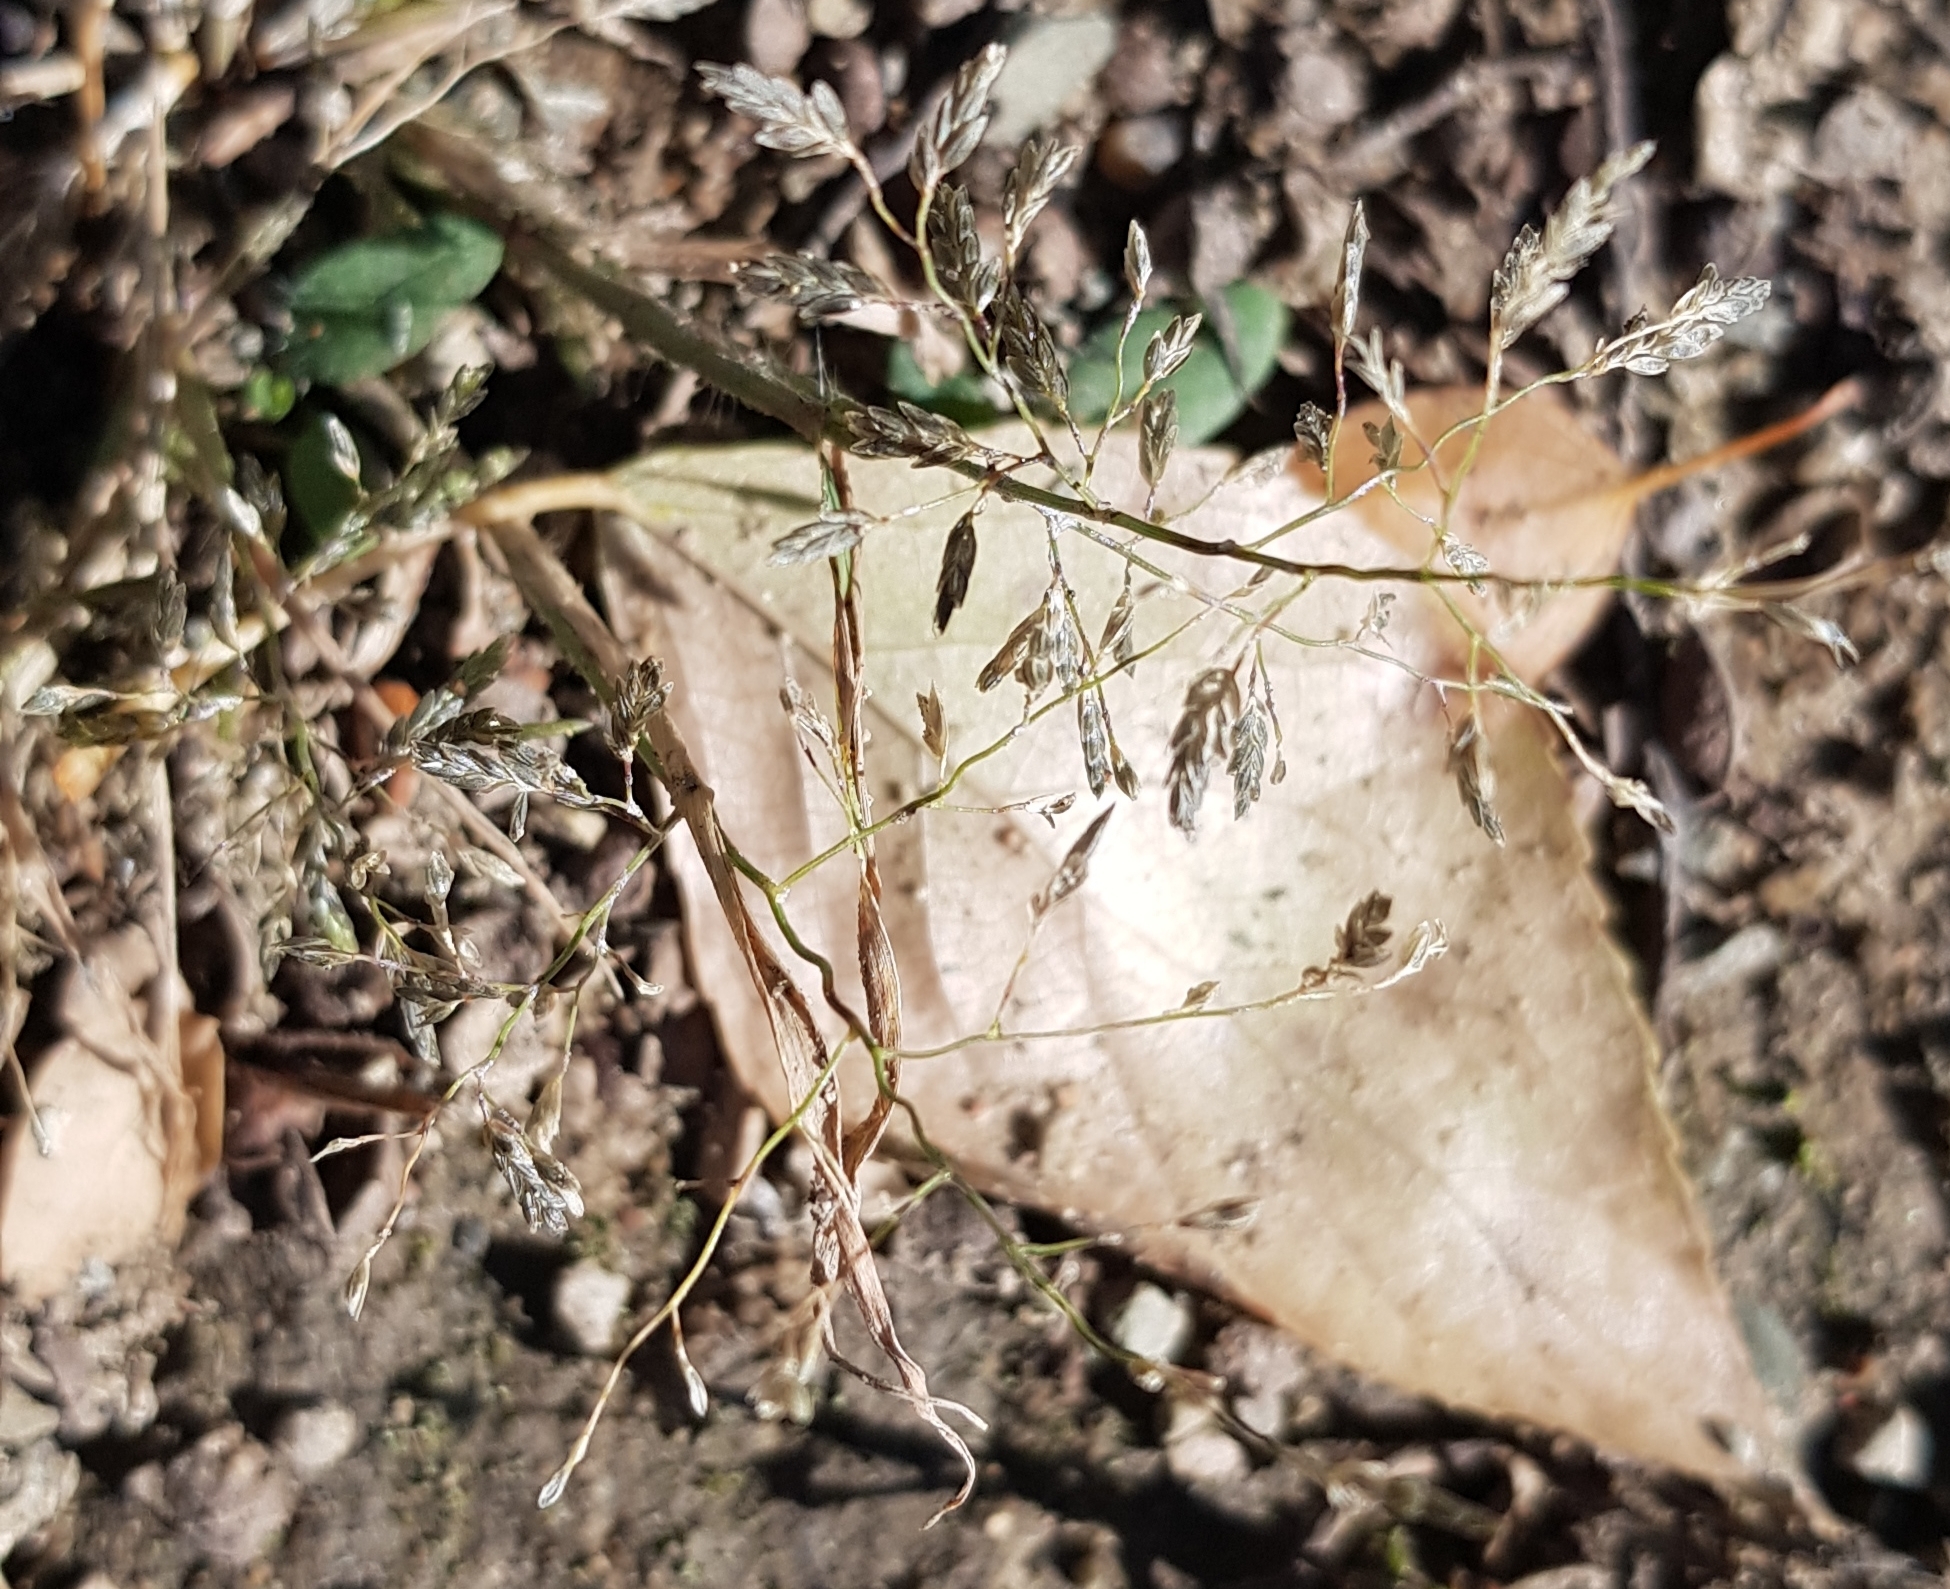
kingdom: Plantae
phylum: Tracheophyta
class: Liliopsida
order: Poales
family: Poaceae
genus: Eragrostis
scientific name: Eragrostis minor
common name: Small love-grass
